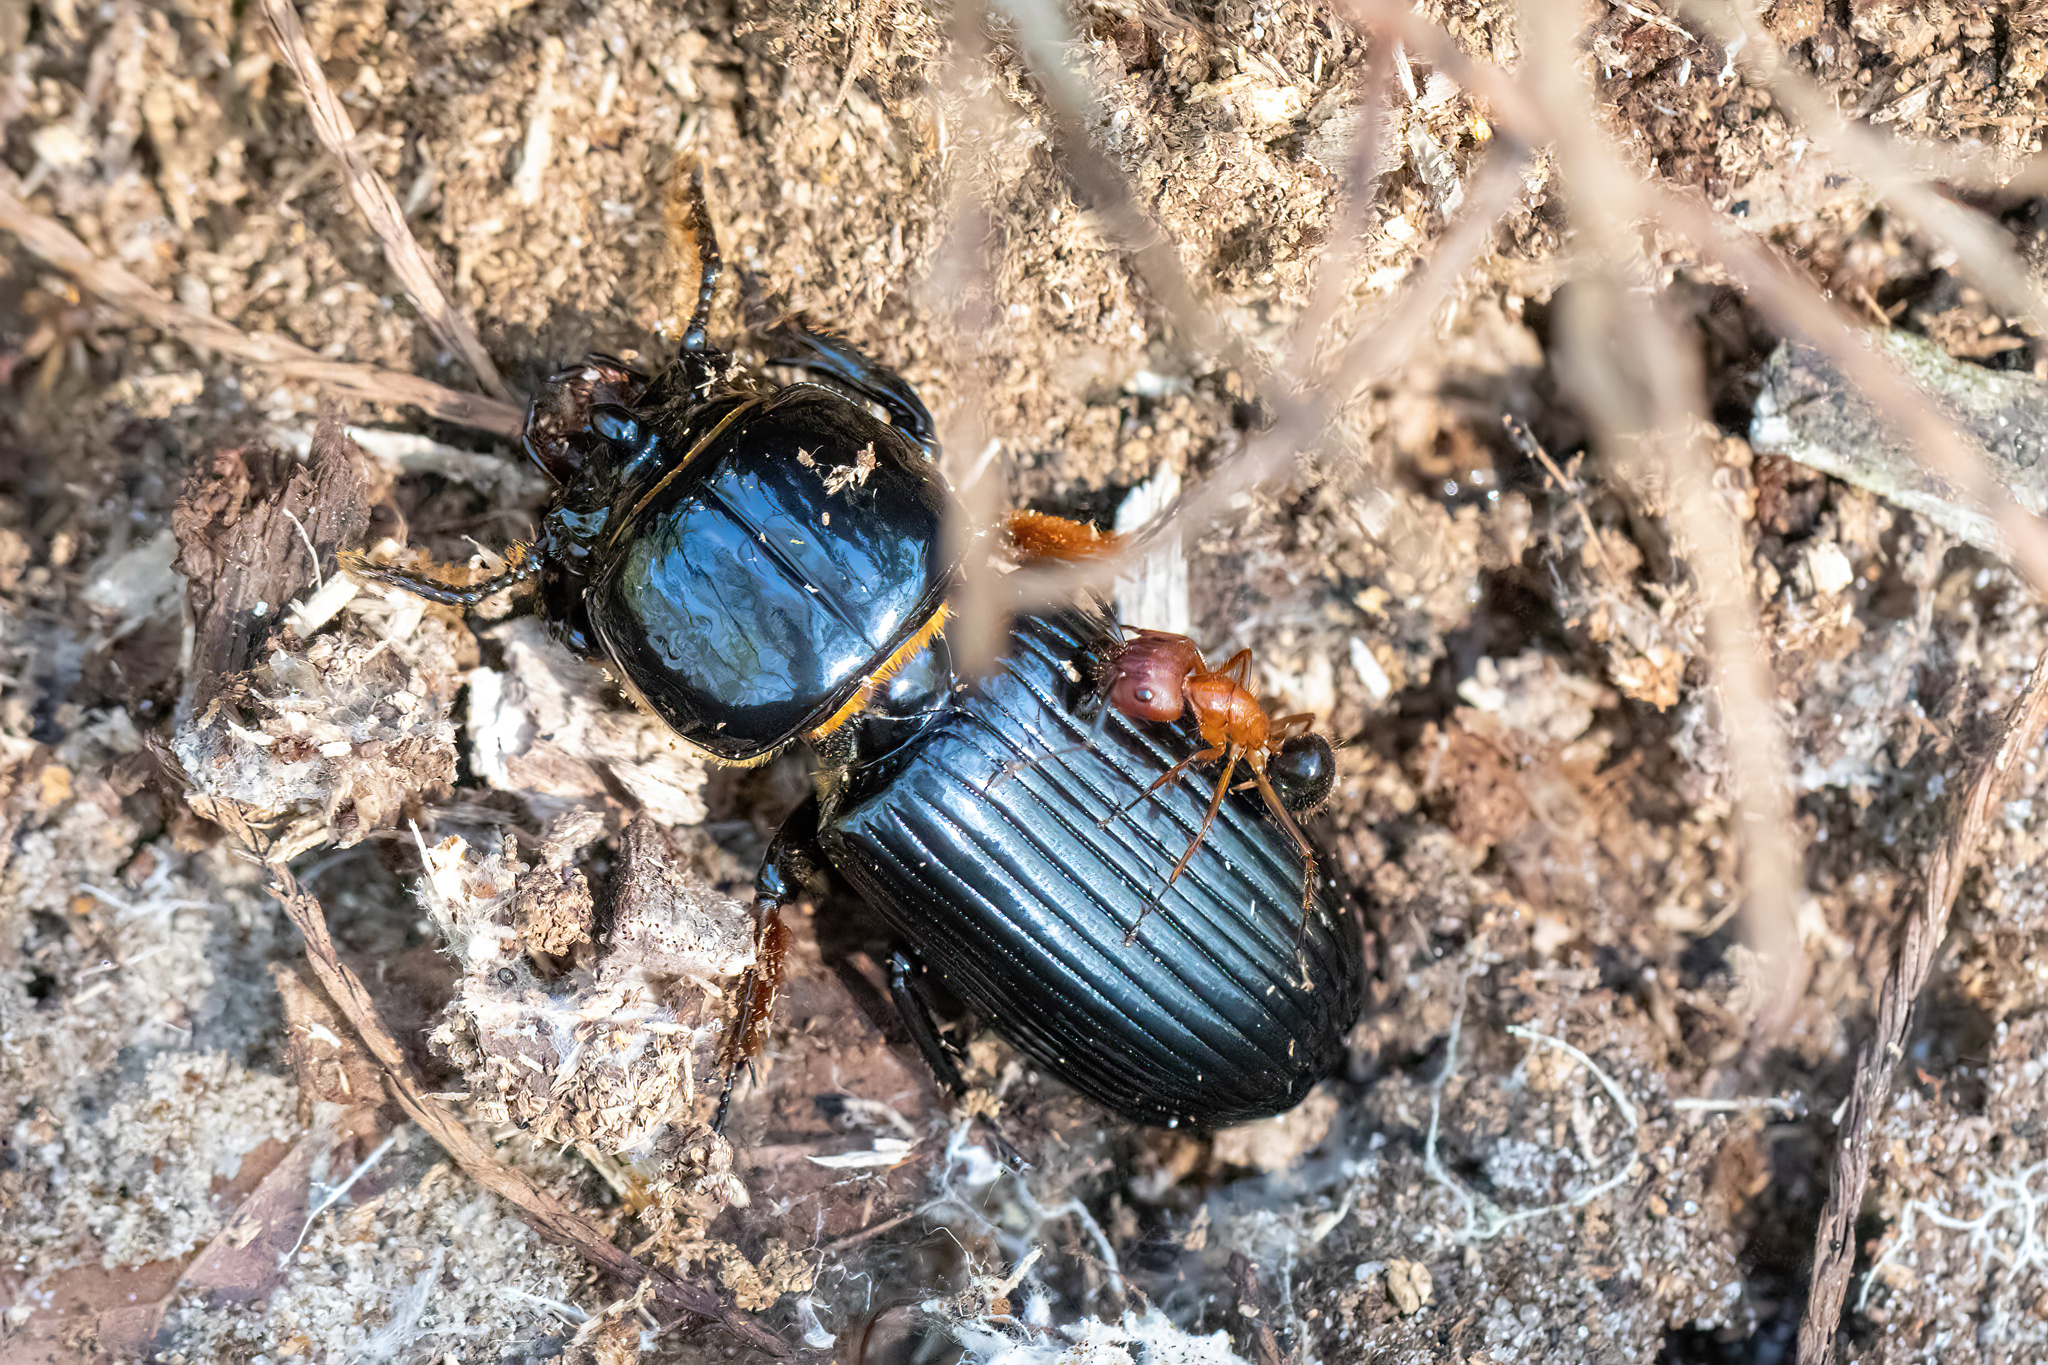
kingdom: Animalia
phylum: Arthropoda
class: Insecta
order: Coleoptera
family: Passalidae
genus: Odontotaenius
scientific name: Odontotaenius disjunctus
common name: Patent leather beetle
